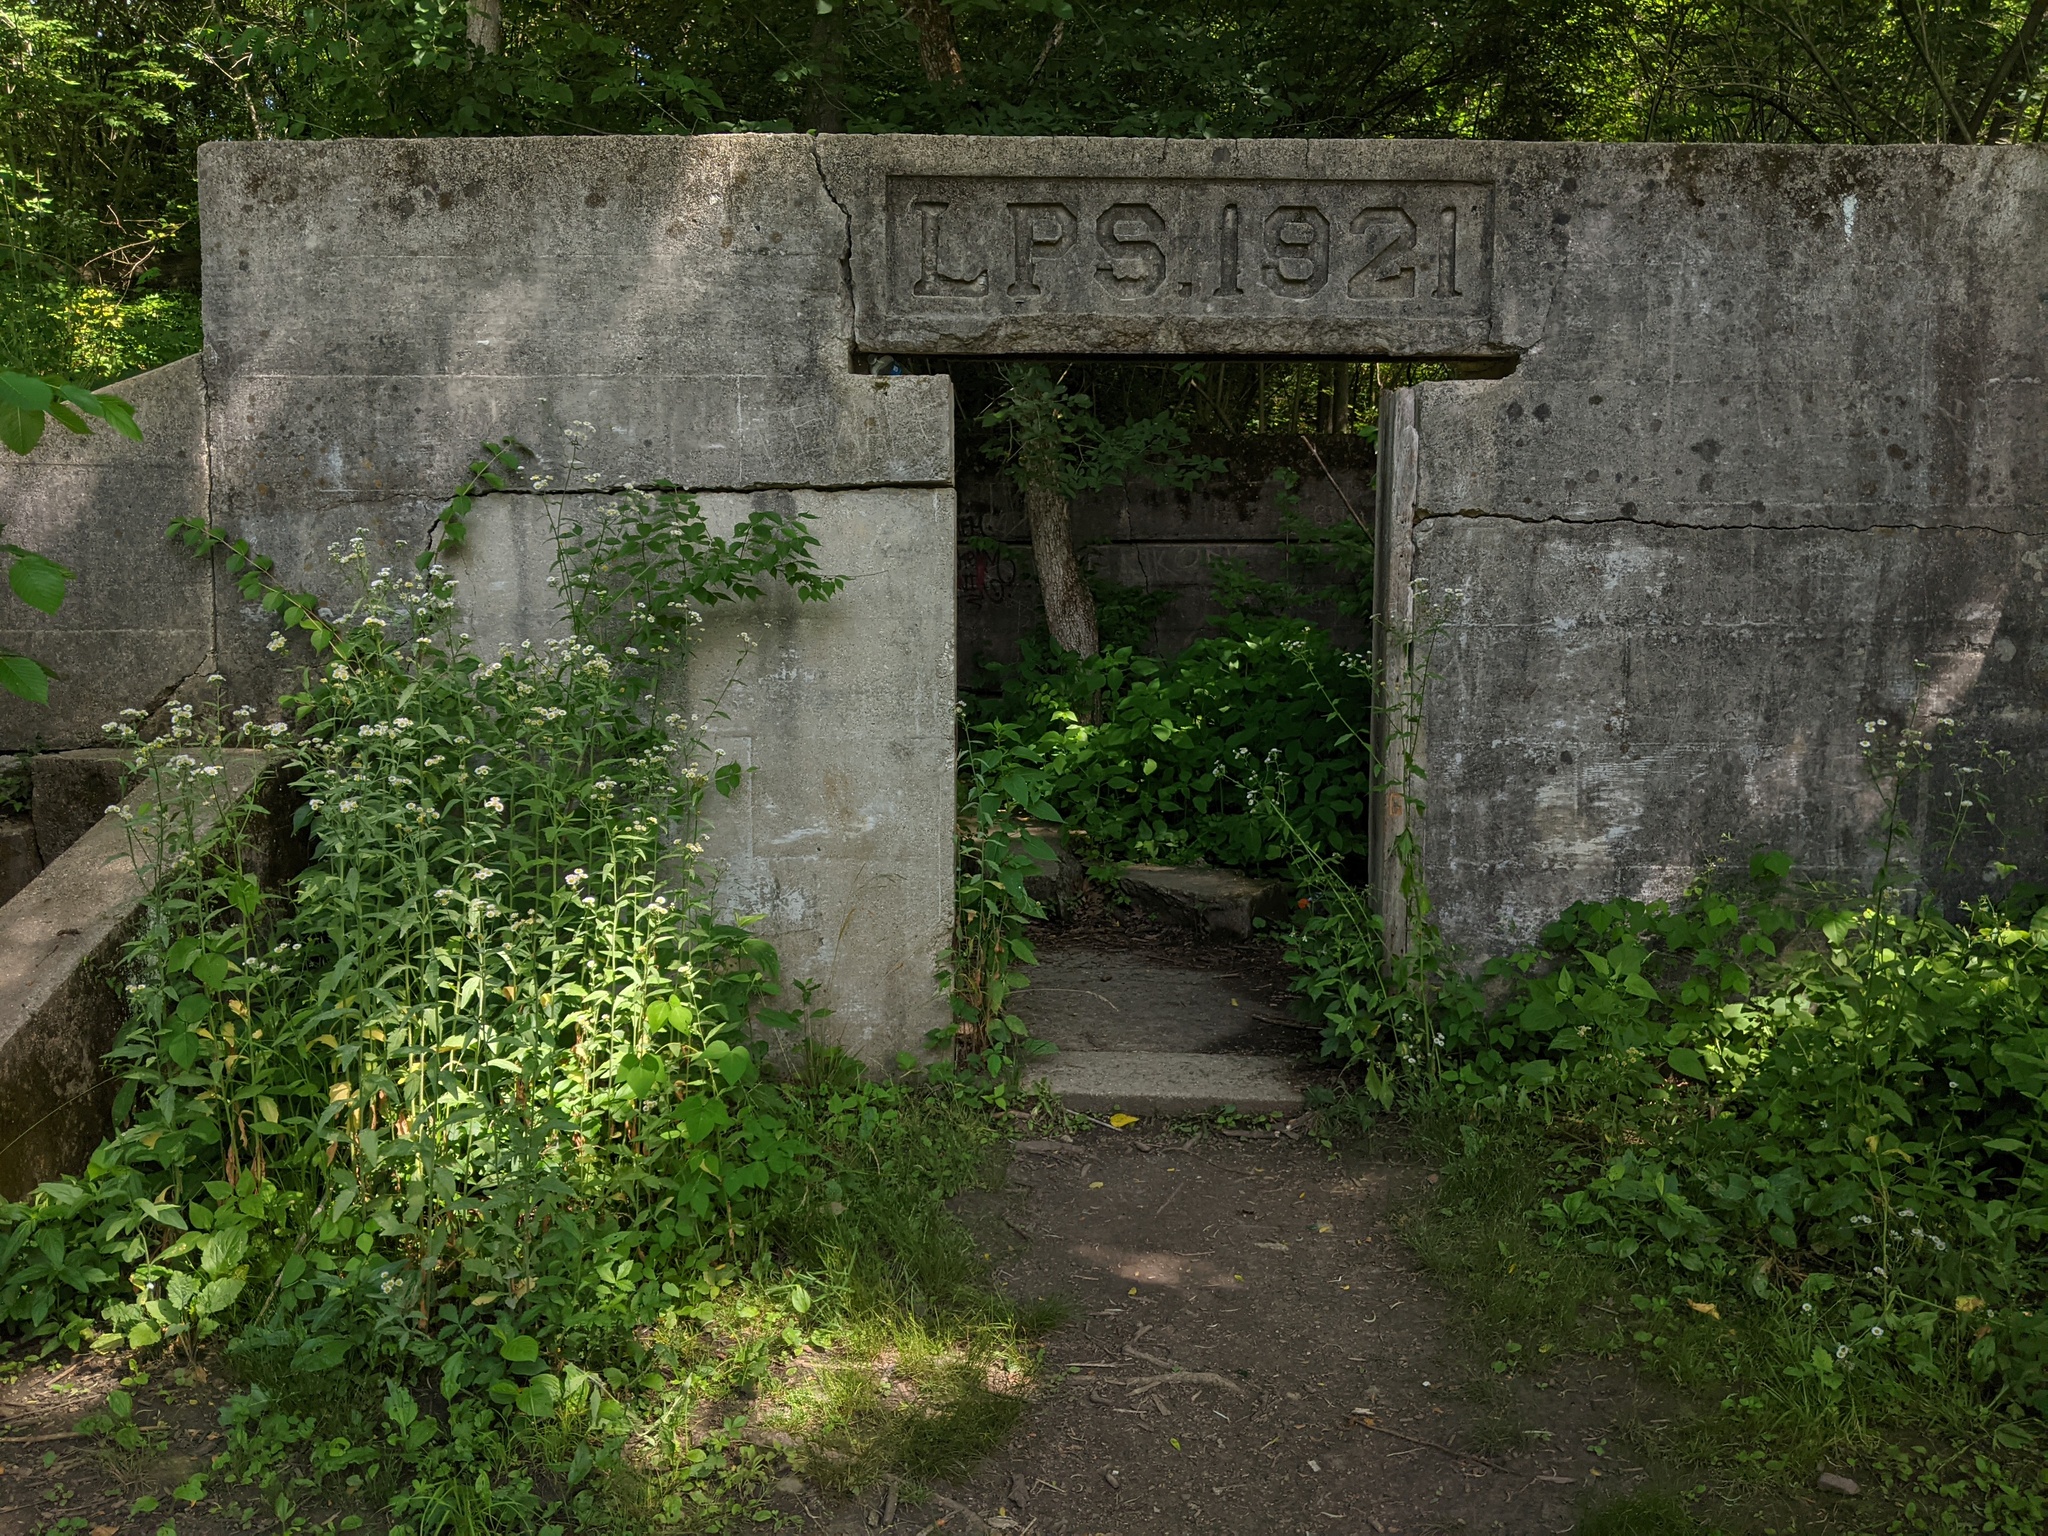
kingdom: Plantae
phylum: Tracheophyta
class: Magnoliopsida
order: Asterales
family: Asteraceae
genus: Erigeron
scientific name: Erigeron annuus
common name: Tall fleabane
